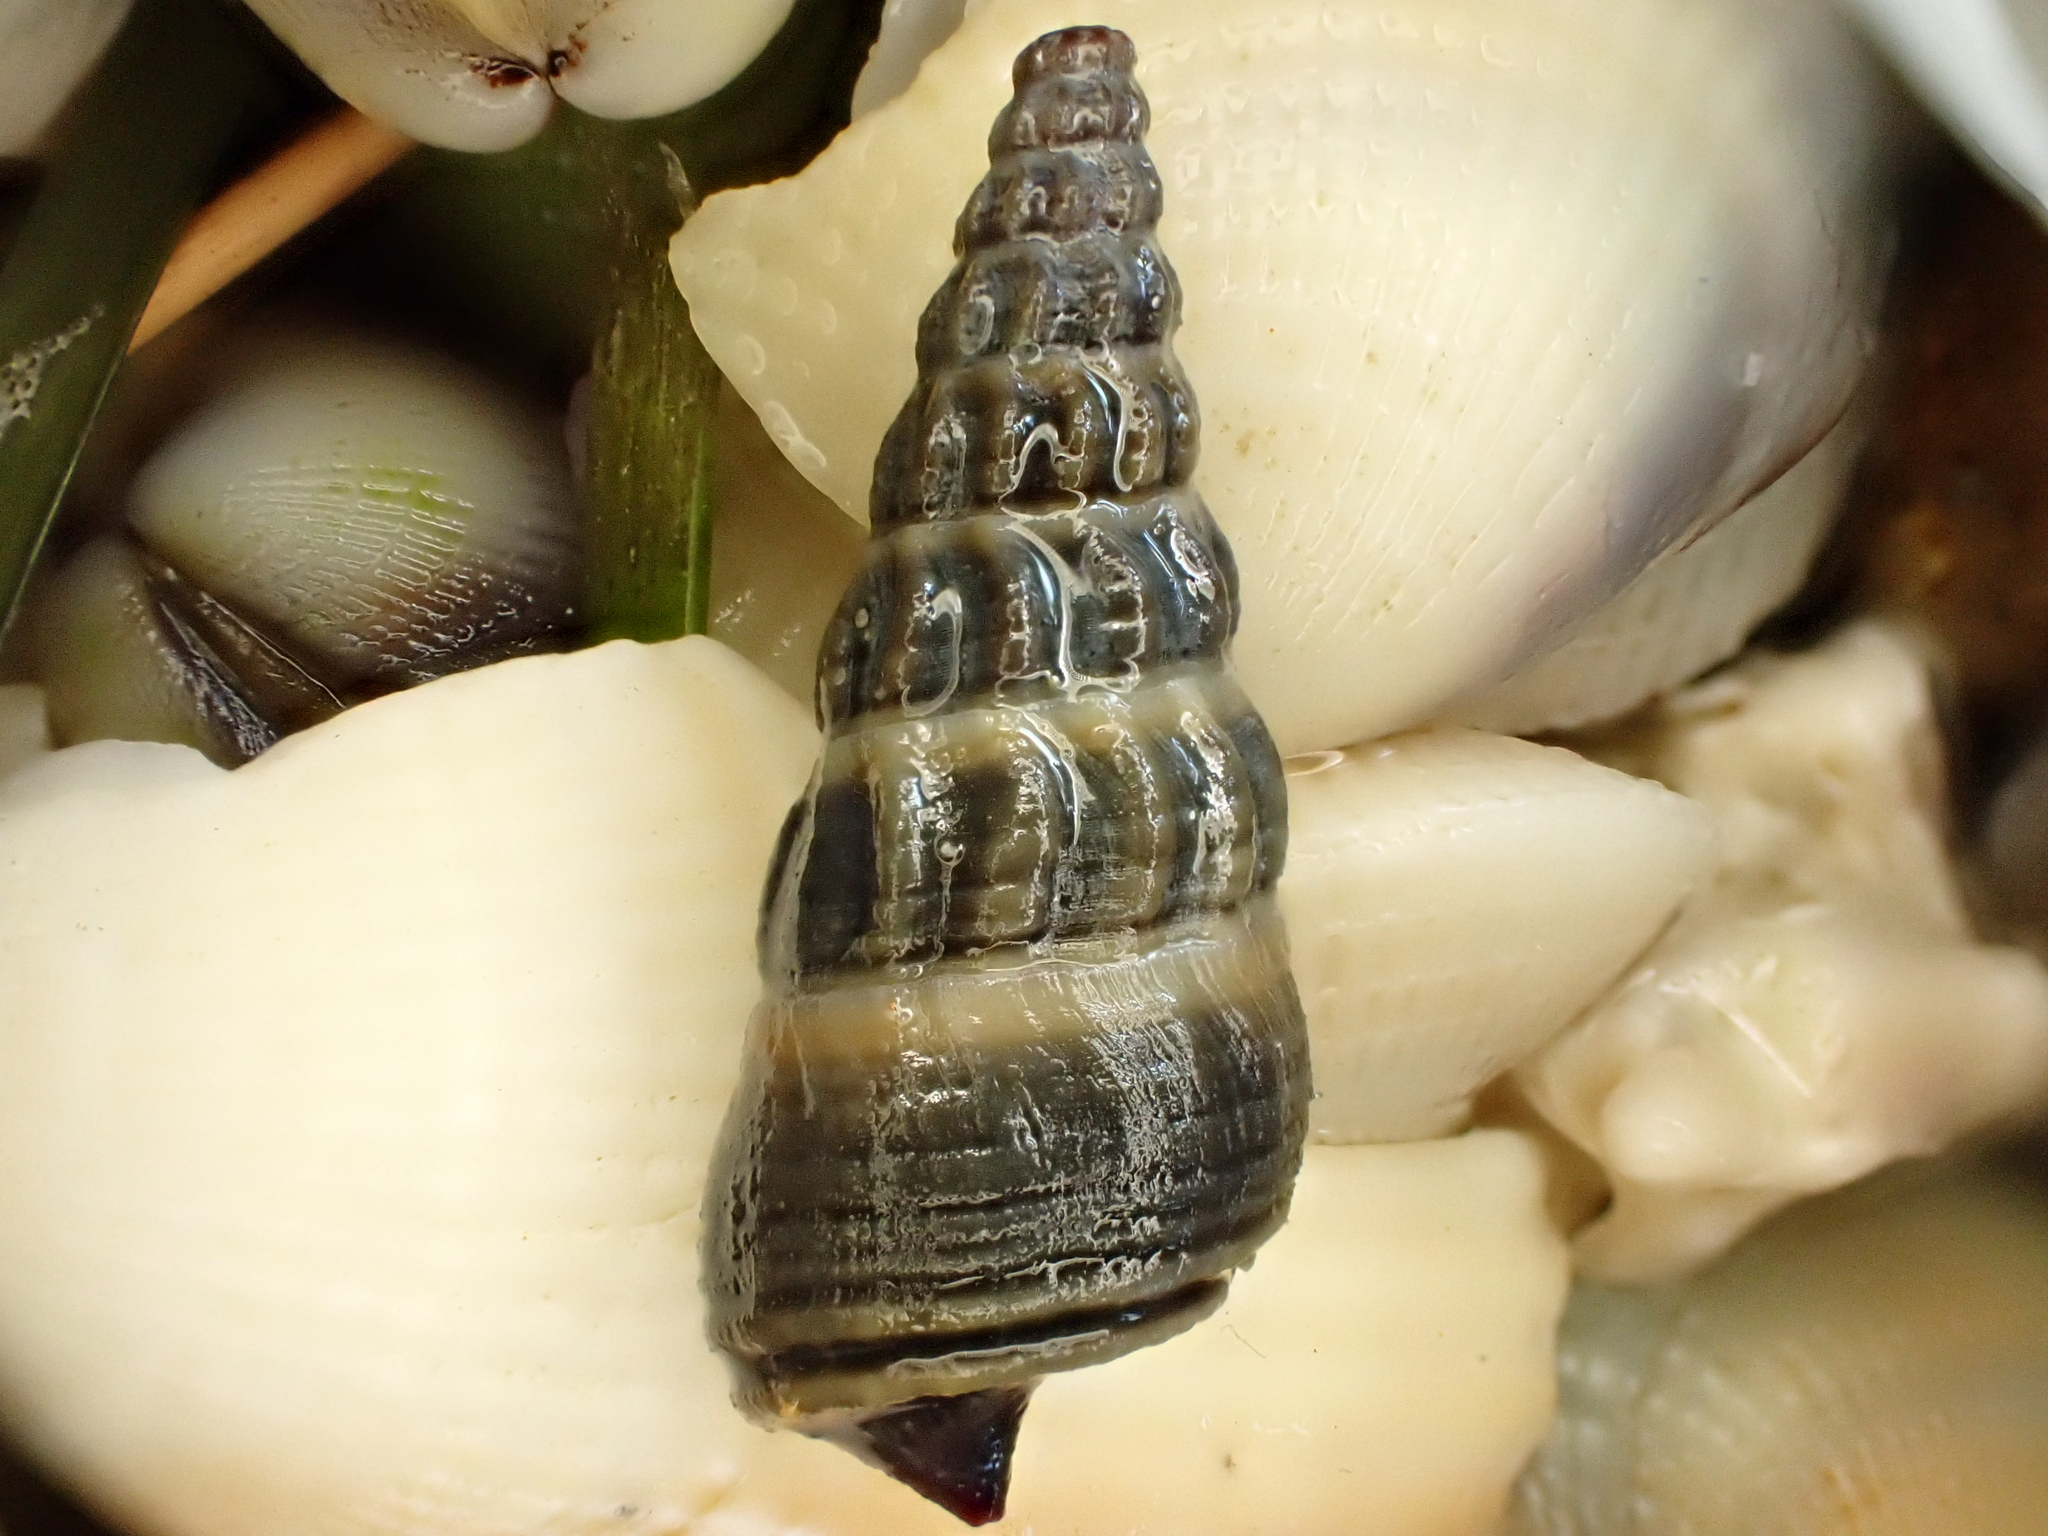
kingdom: Animalia
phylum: Mollusca
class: Gastropoda
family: Batillariidae
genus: Zeacumantus
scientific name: Zeacumantus lutulentus
